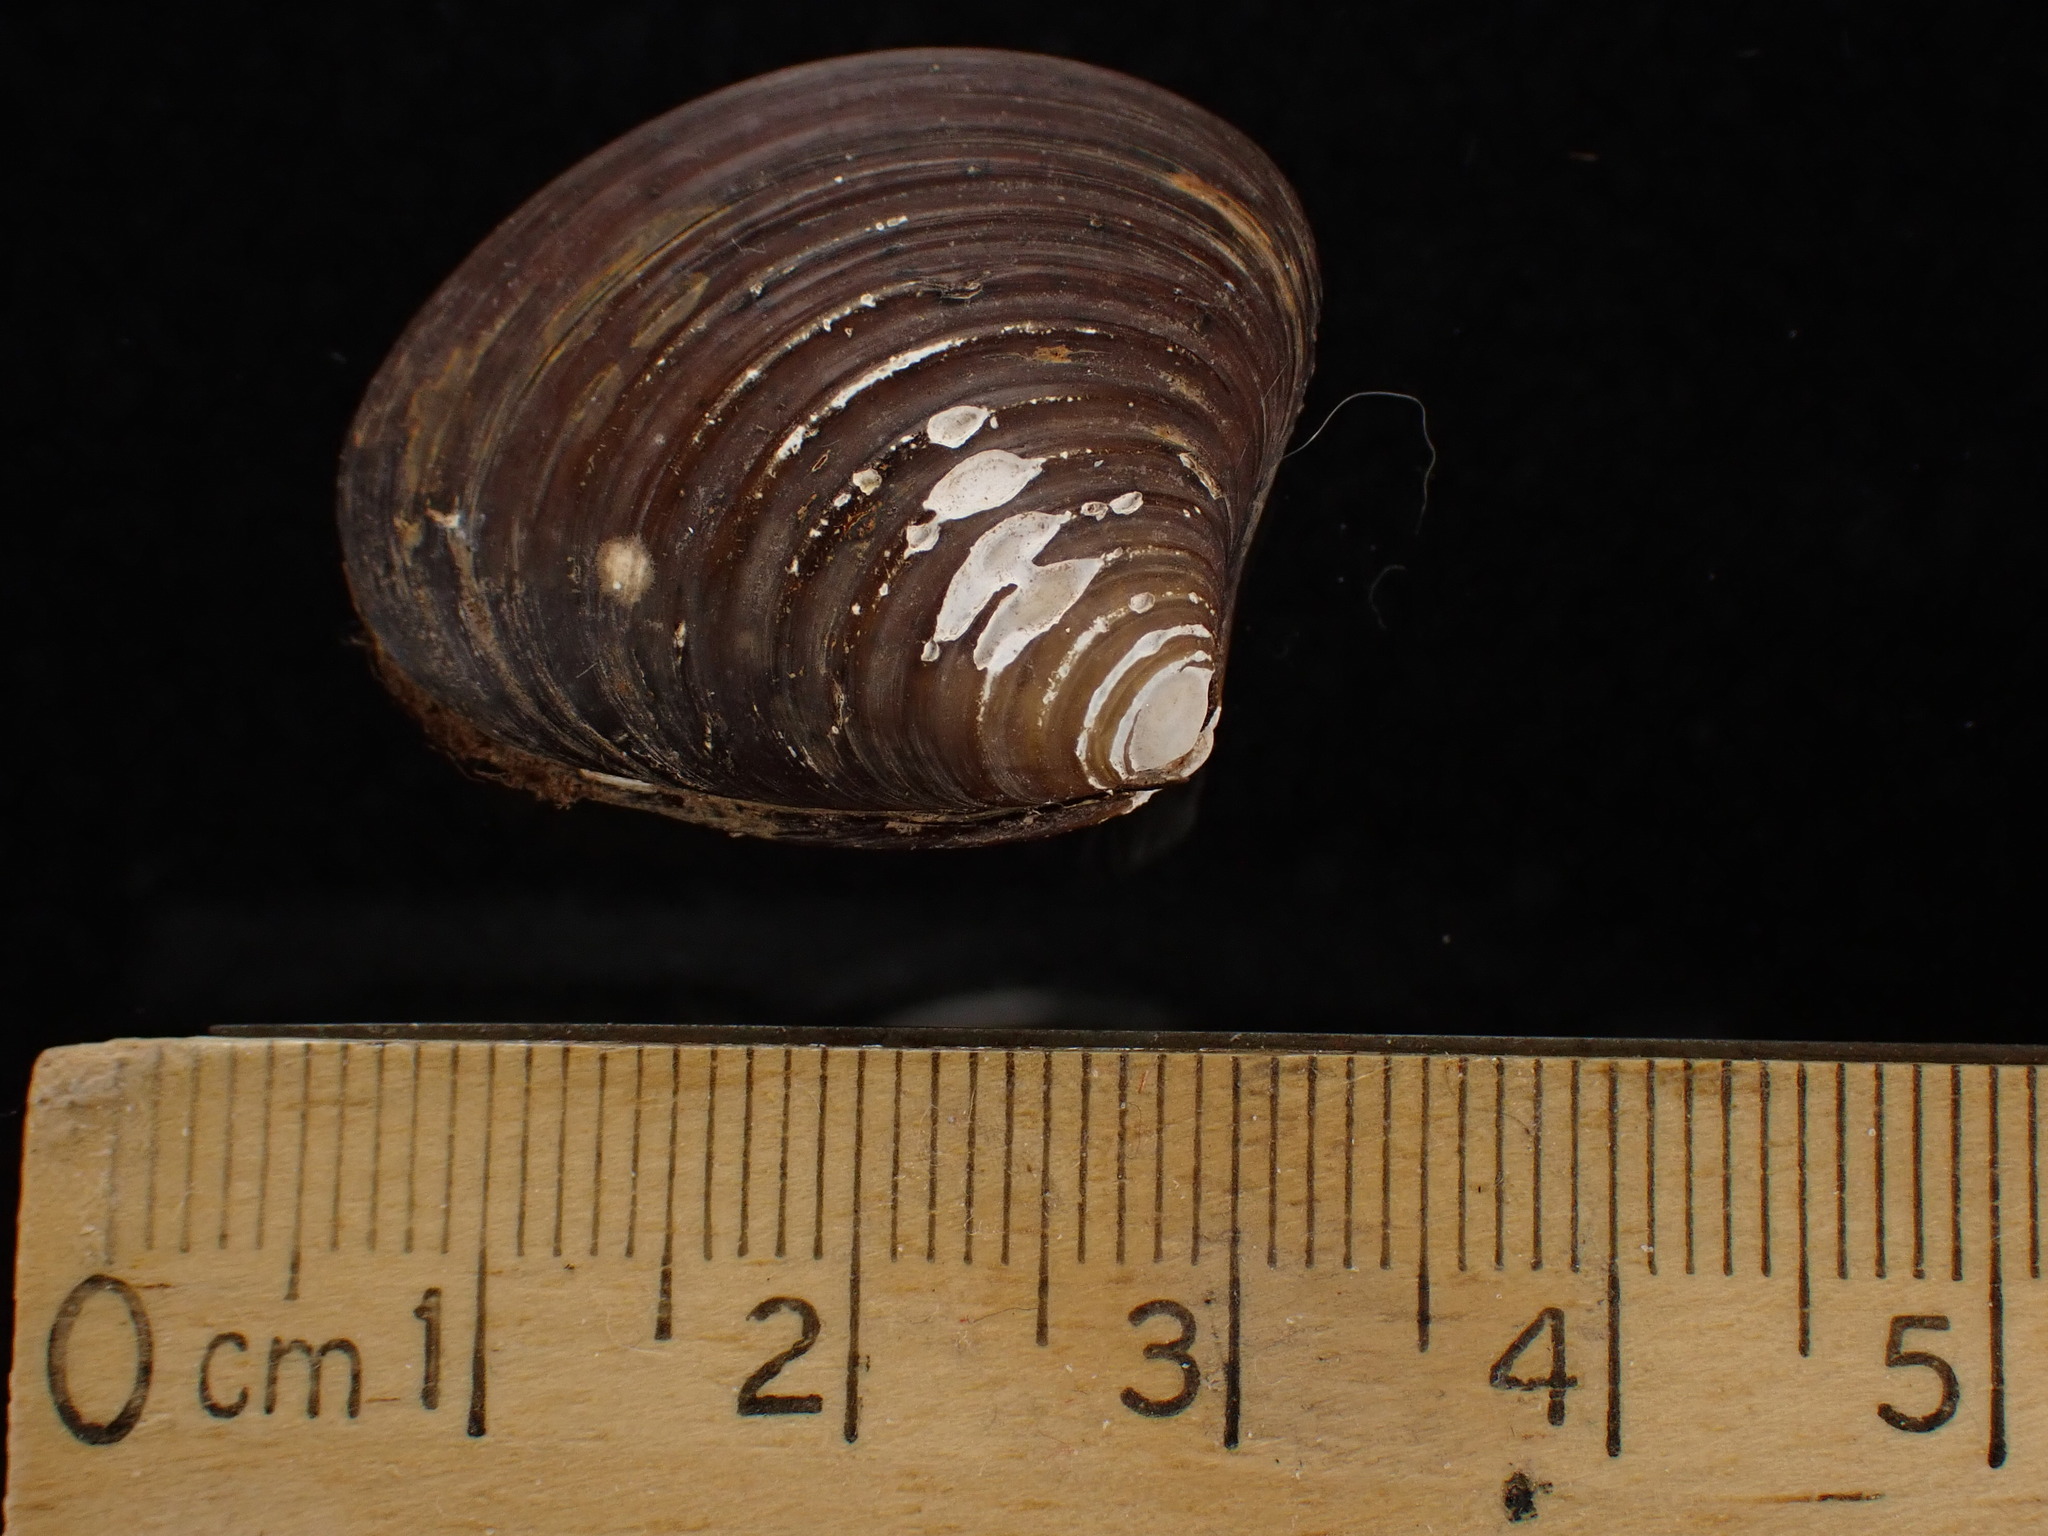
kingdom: Animalia
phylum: Mollusca
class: Bivalvia
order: Carditida
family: Astartidae
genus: Astarte
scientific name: Astarte undata
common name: Wavy astarte
